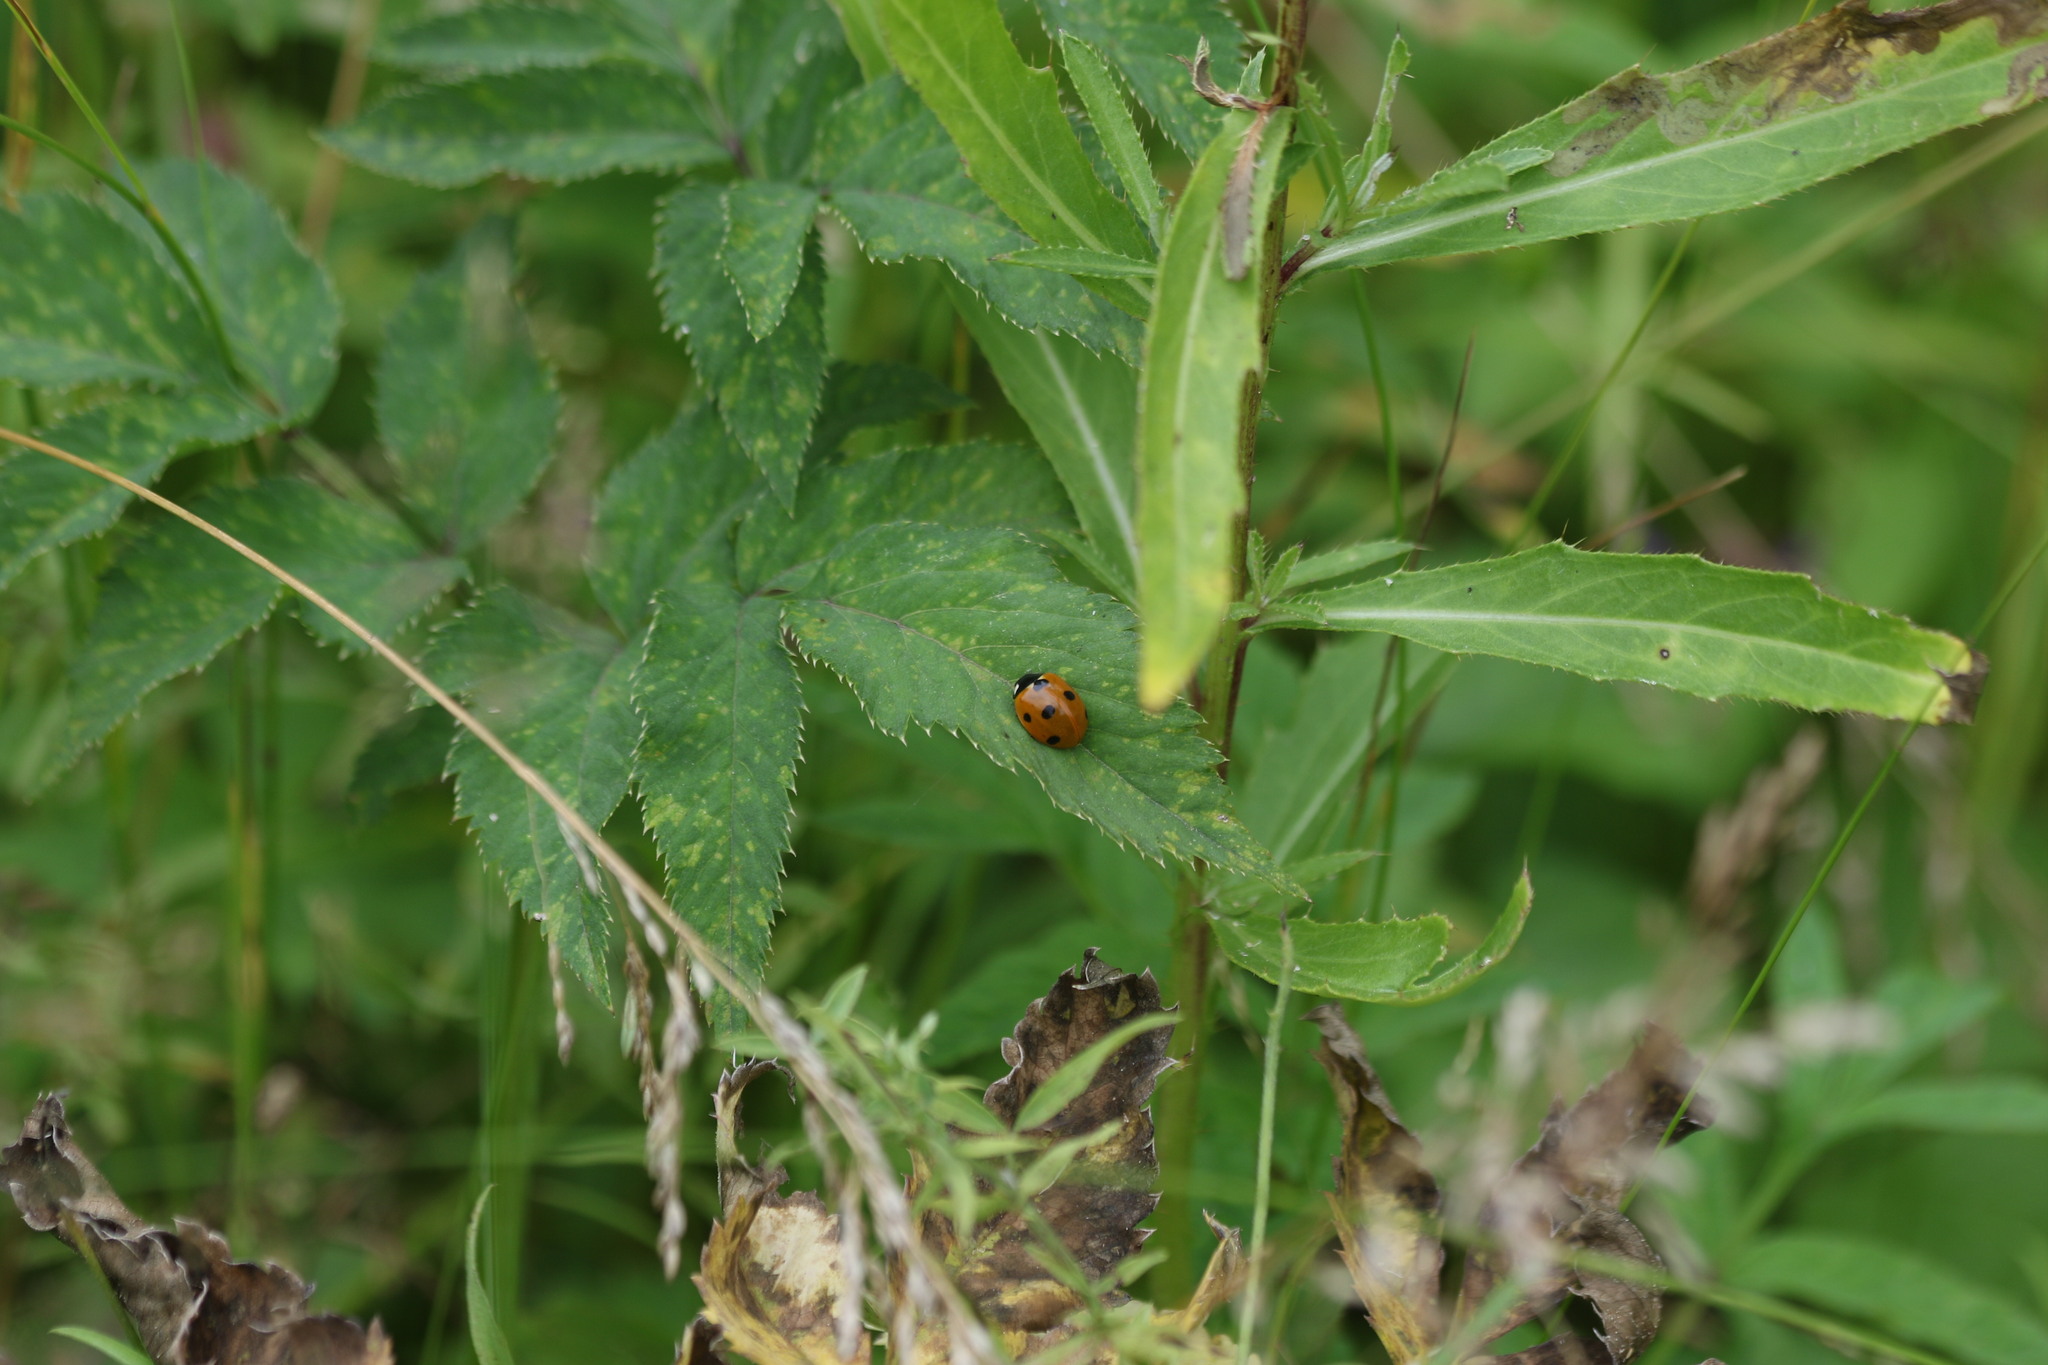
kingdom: Animalia
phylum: Arthropoda
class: Insecta
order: Coleoptera
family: Coccinellidae
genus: Coccinella
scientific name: Coccinella septempunctata
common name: Sevenspotted lady beetle
